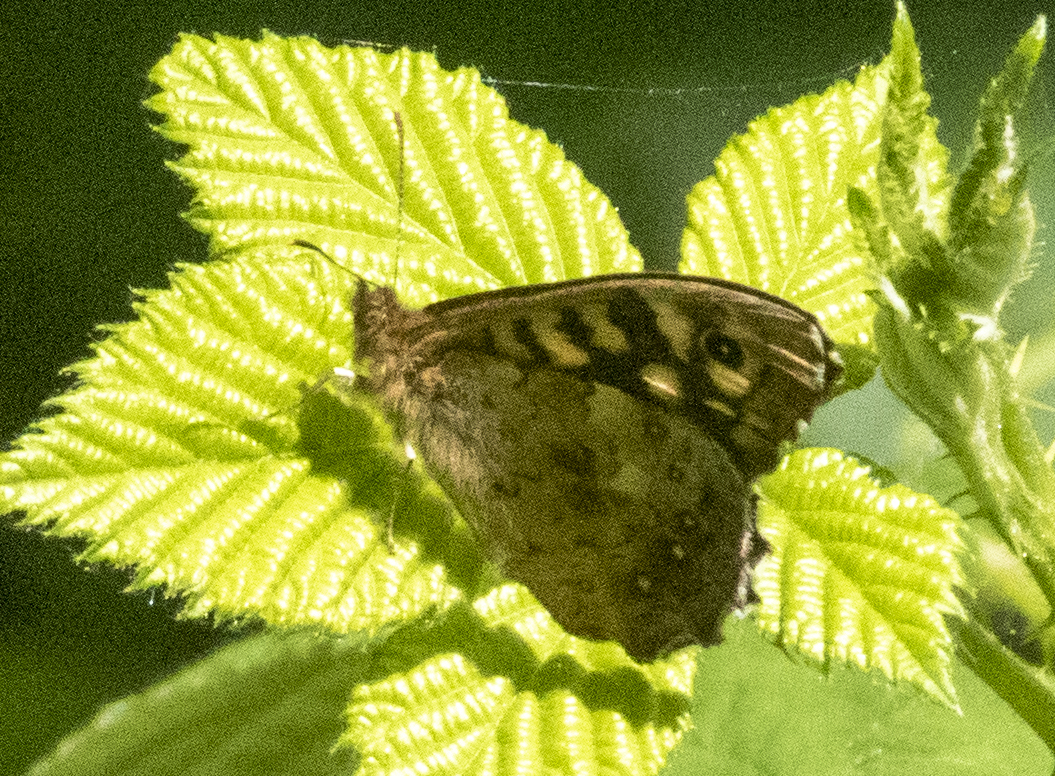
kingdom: Animalia
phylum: Arthropoda
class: Insecta
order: Lepidoptera
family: Nymphalidae
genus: Pararge
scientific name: Pararge aegeria
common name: Speckled wood
